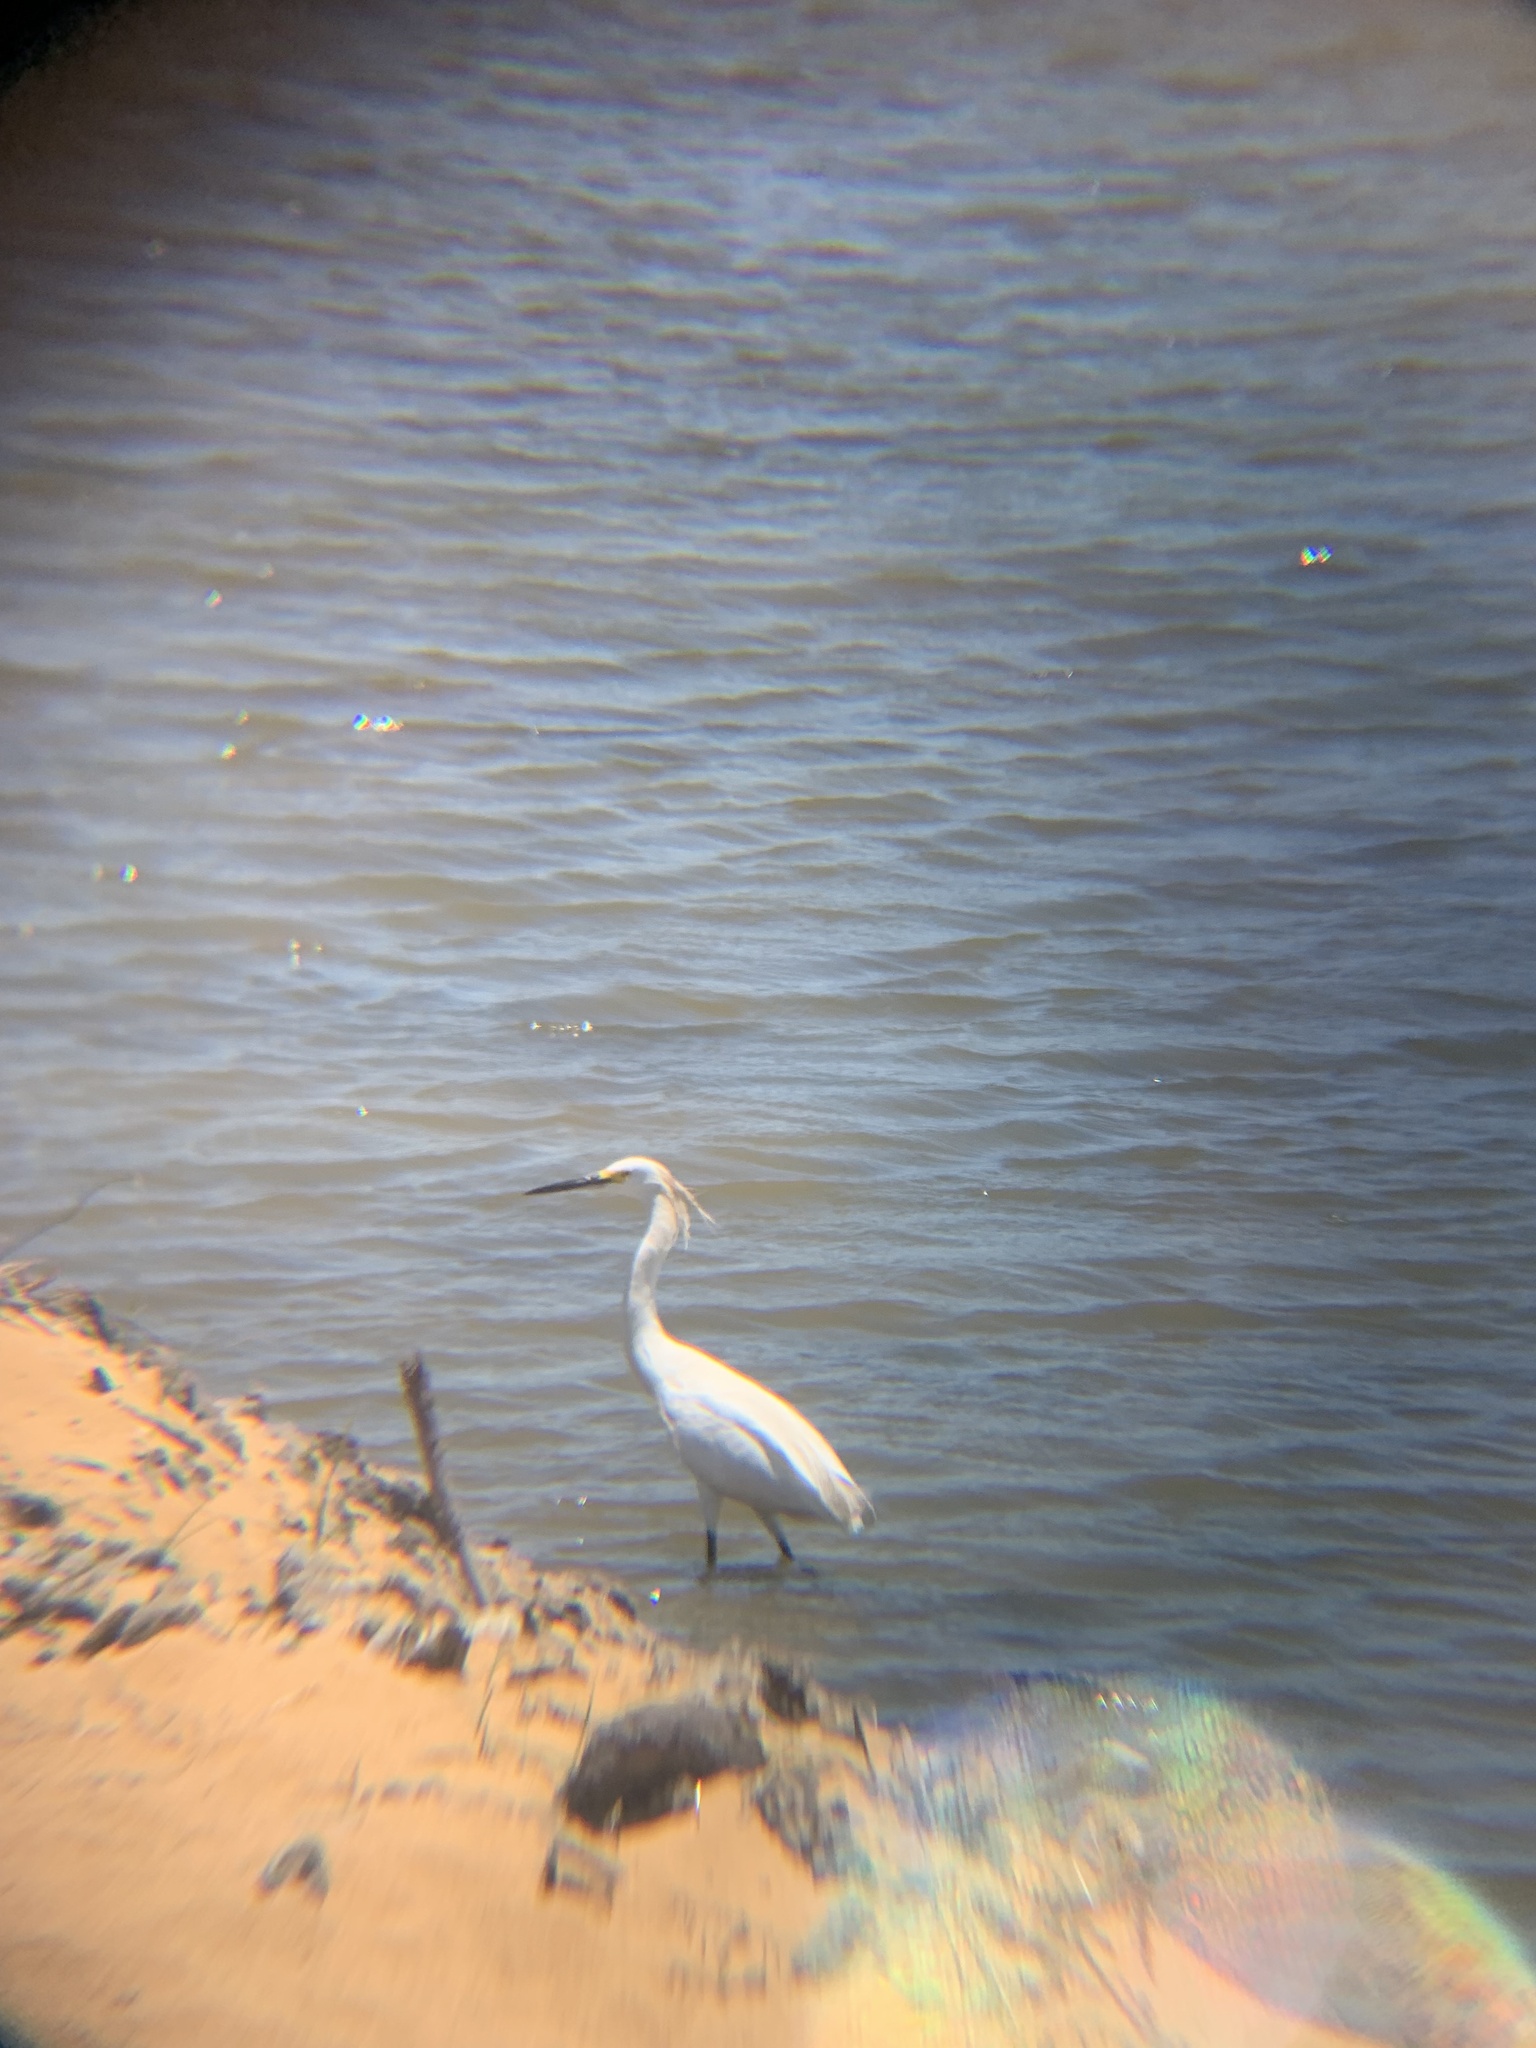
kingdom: Animalia
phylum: Chordata
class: Aves
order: Pelecaniformes
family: Ardeidae
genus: Egretta
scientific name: Egretta thula
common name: Snowy egret
